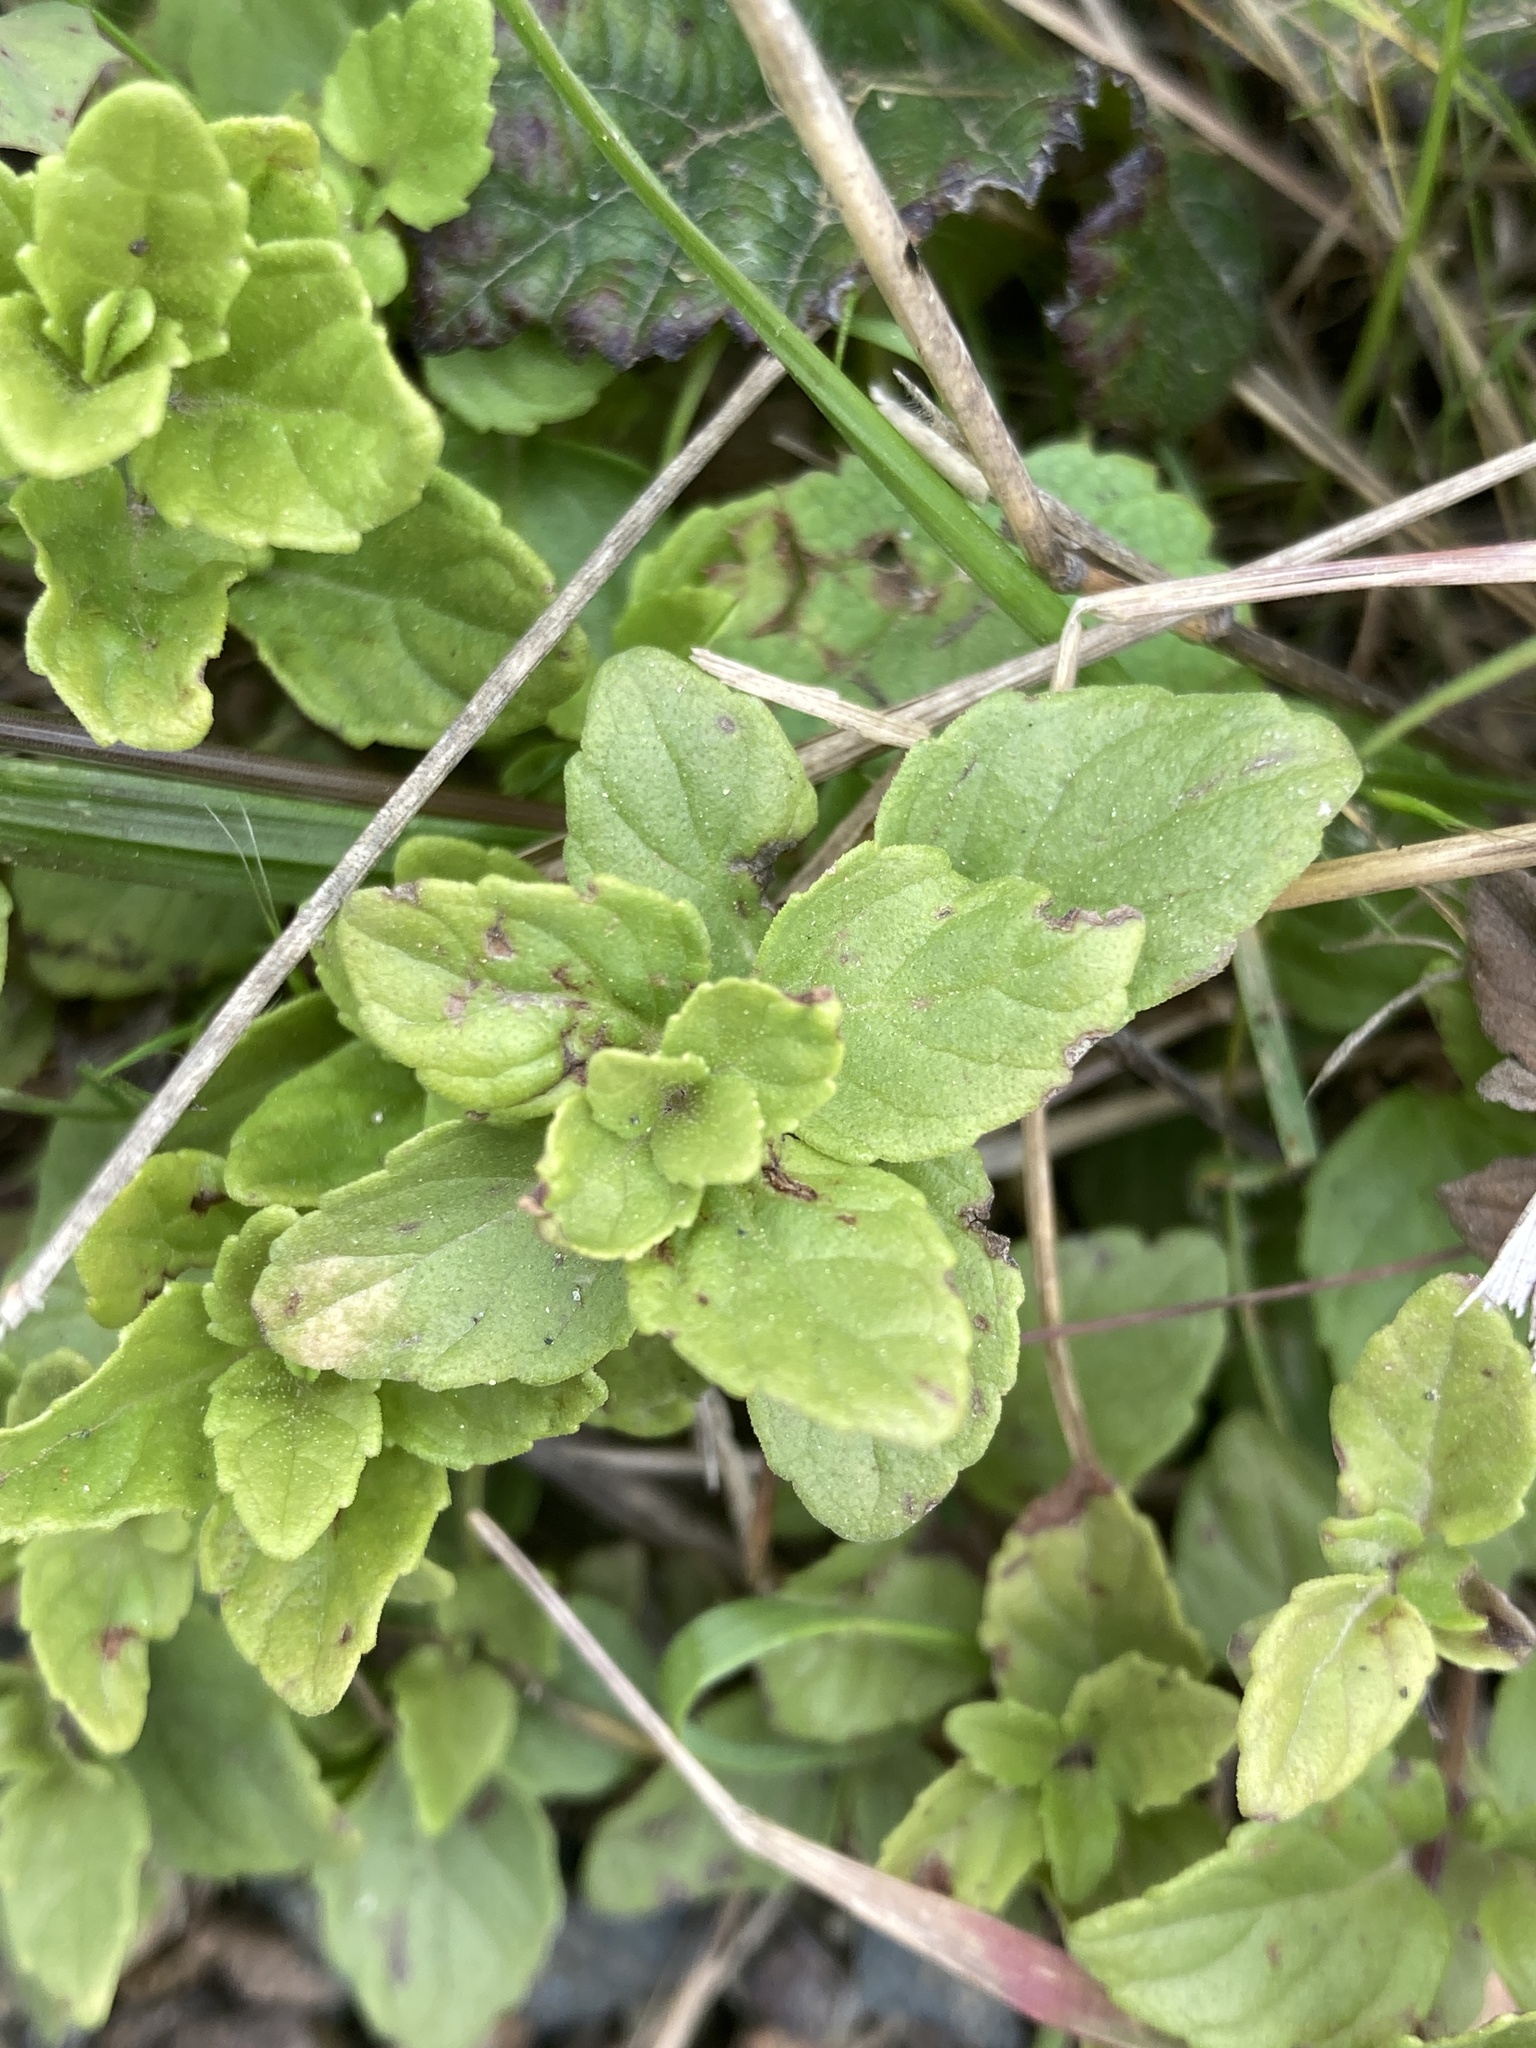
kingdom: Plantae
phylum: Tracheophyta
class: Magnoliopsida
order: Lamiales
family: Lamiaceae
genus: Micromeria
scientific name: Micromeria douglasii
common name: Yerba buena
